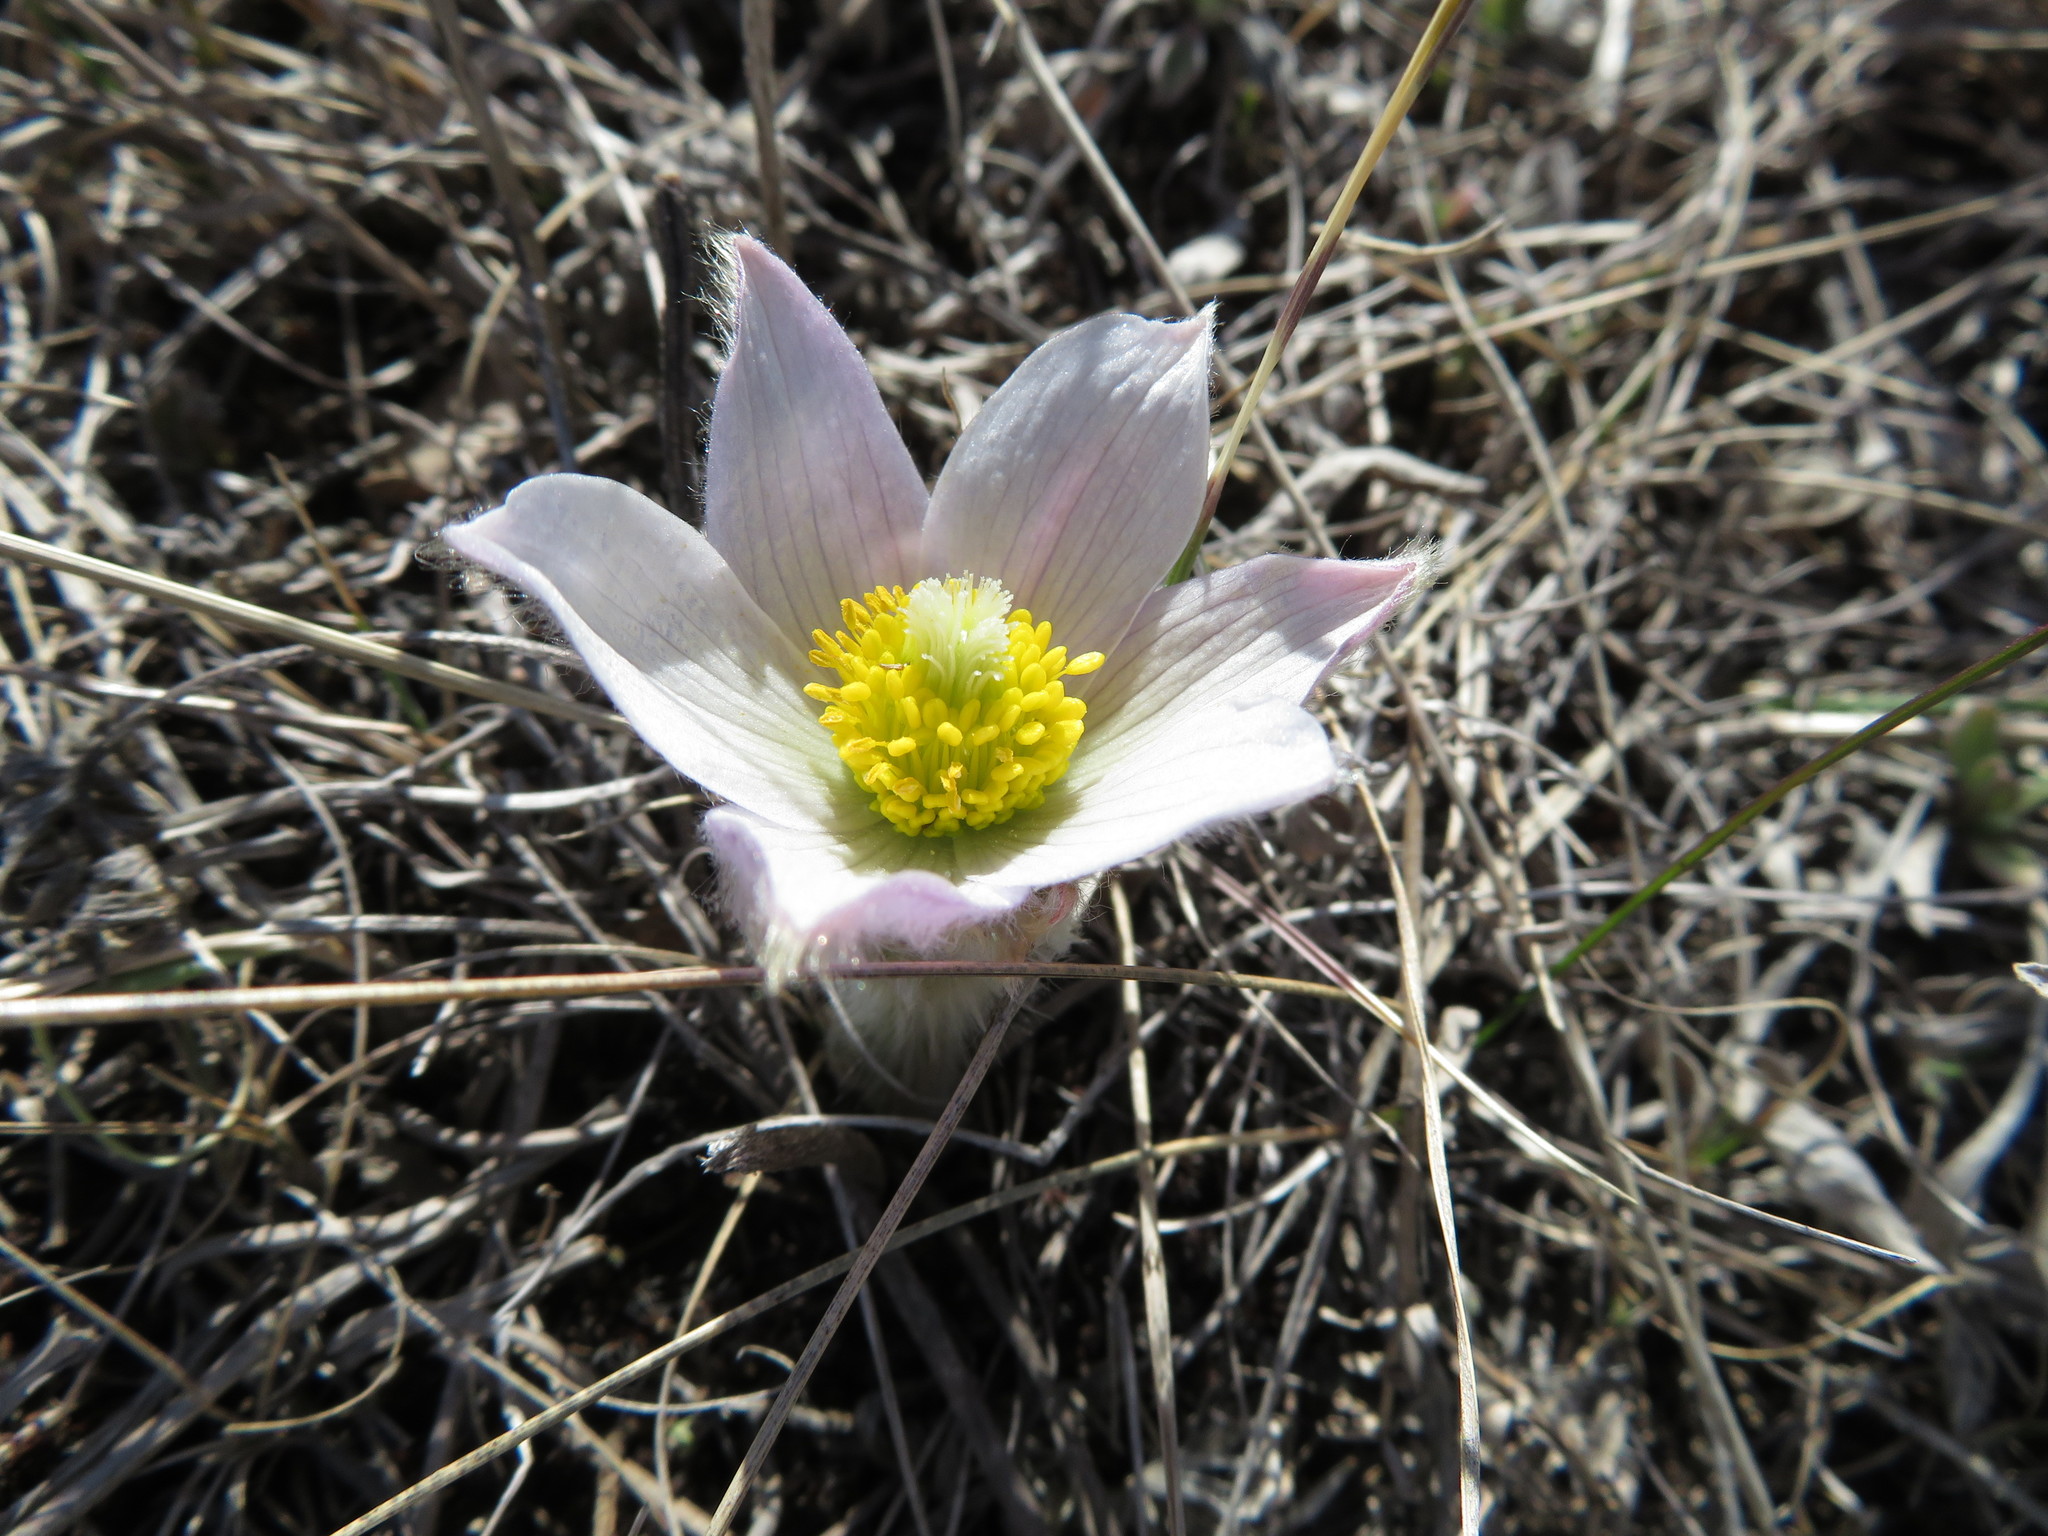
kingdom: Plantae
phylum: Tracheophyta
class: Magnoliopsida
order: Ranunculales
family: Ranunculaceae
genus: Pulsatilla
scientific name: Pulsatilla nuttalliana
